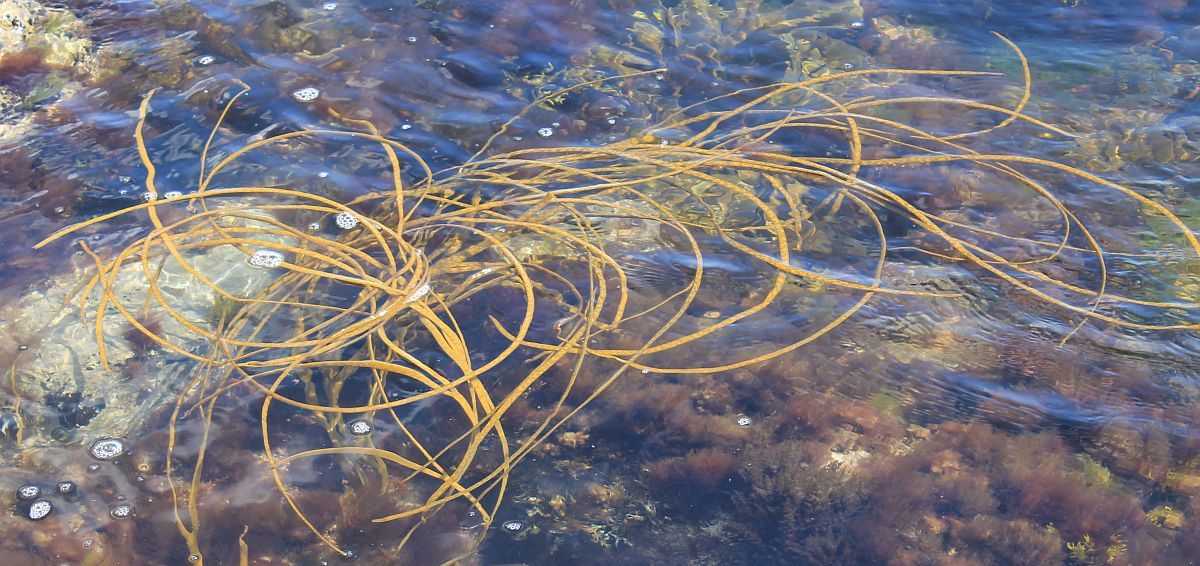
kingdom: Chromista
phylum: Ochrophyta
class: Phaeophyceae
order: Fucales
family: Himanthaliaceae
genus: Himanthalia
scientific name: Himanthalia elongata
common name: Sea-thong
